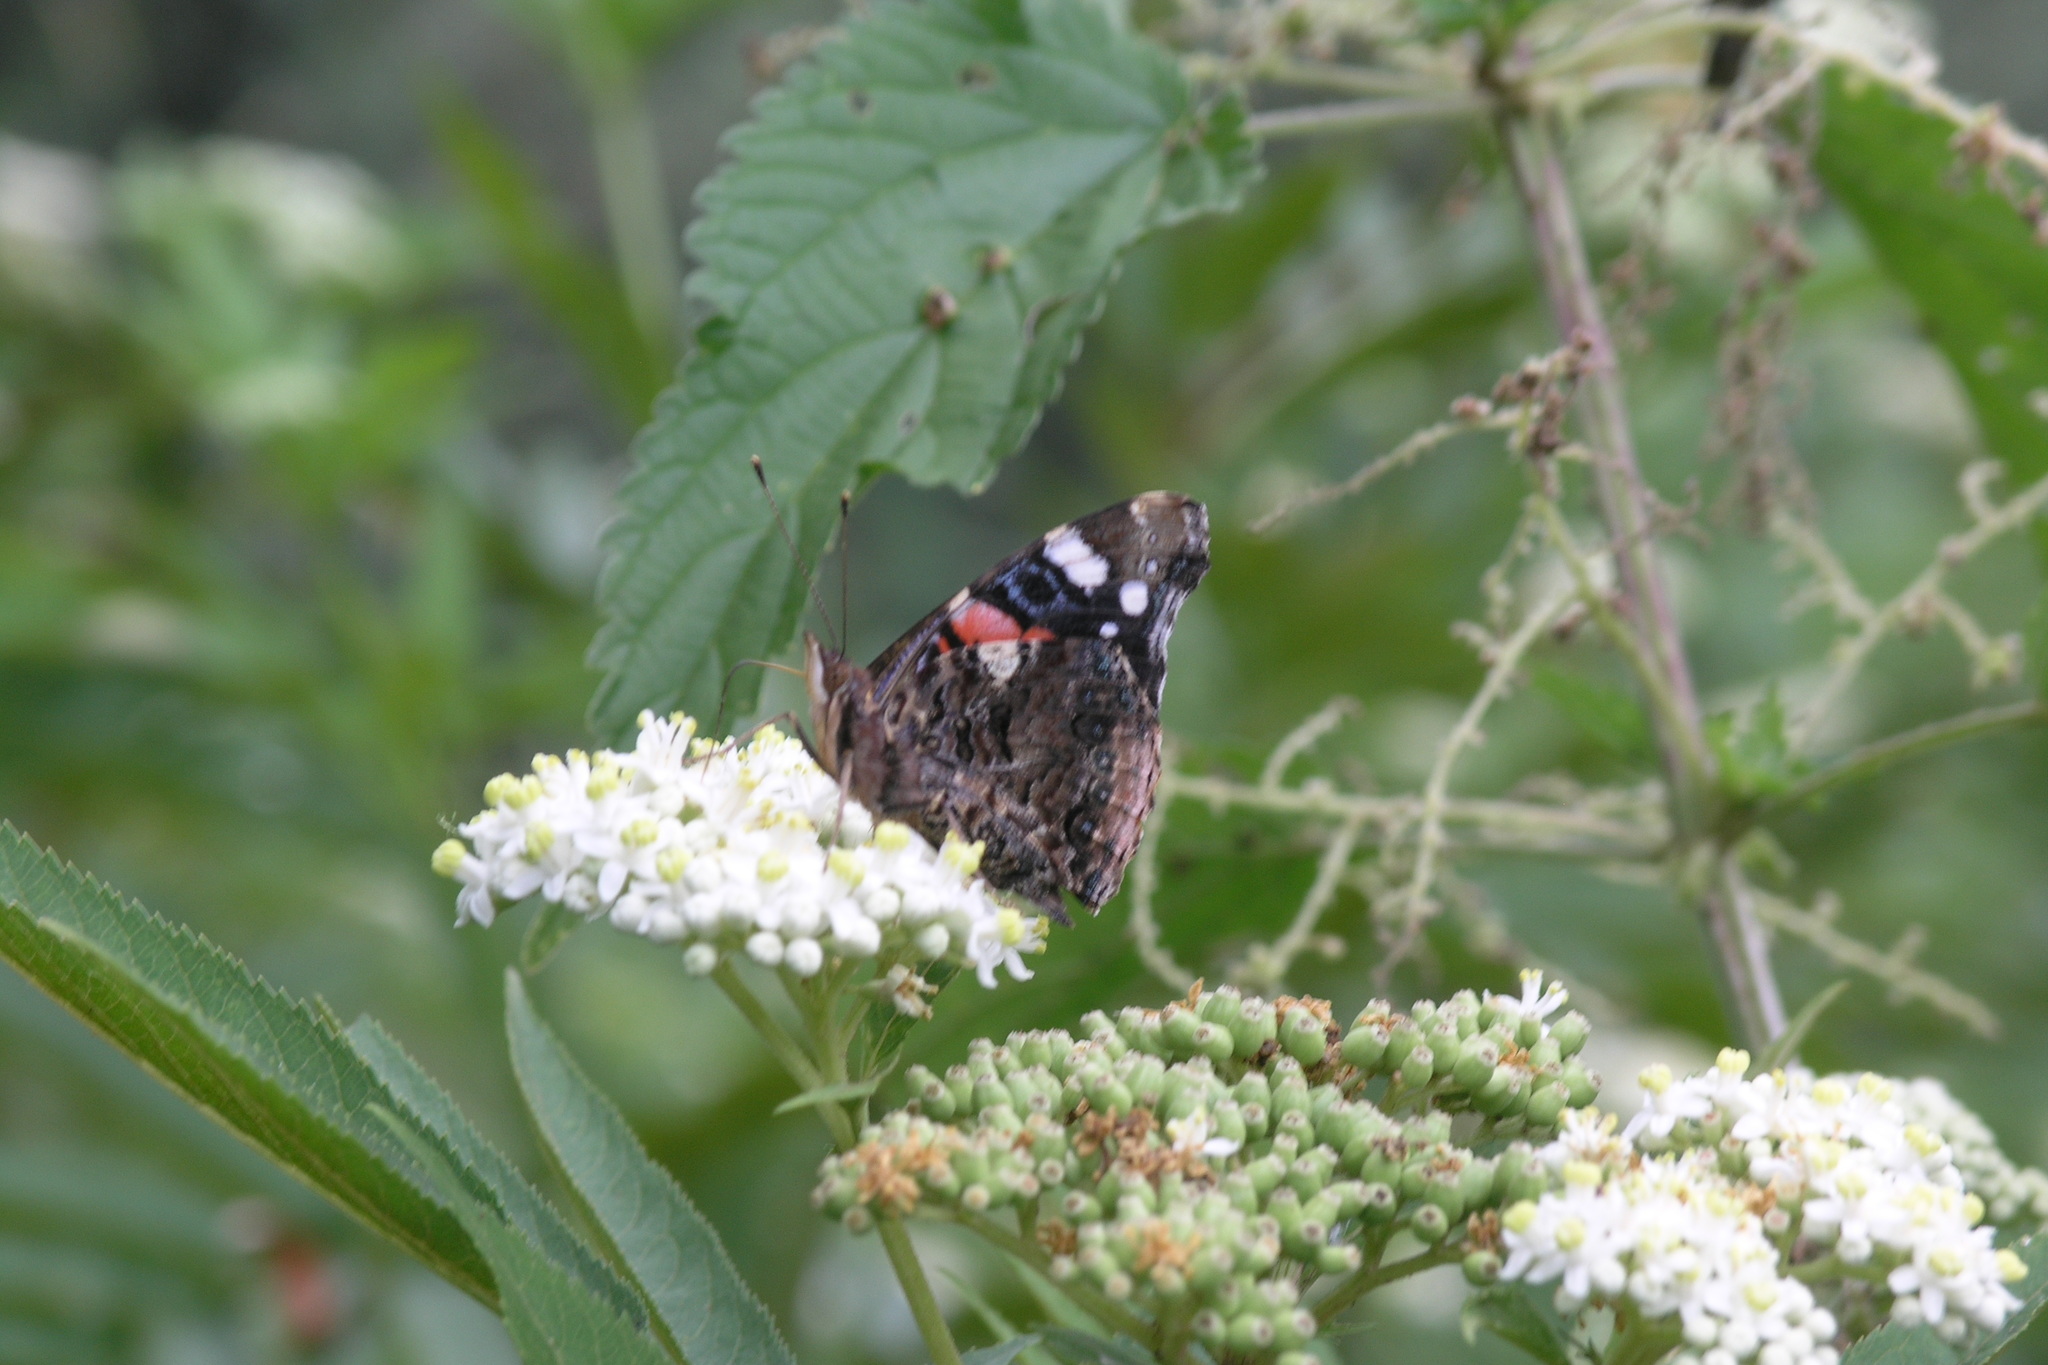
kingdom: Animalia
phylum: Arthropoda
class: Insecta
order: Lepidoptera
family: Nymphalidae
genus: Vanessa
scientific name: Vanessa atalanta
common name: Red admiral
